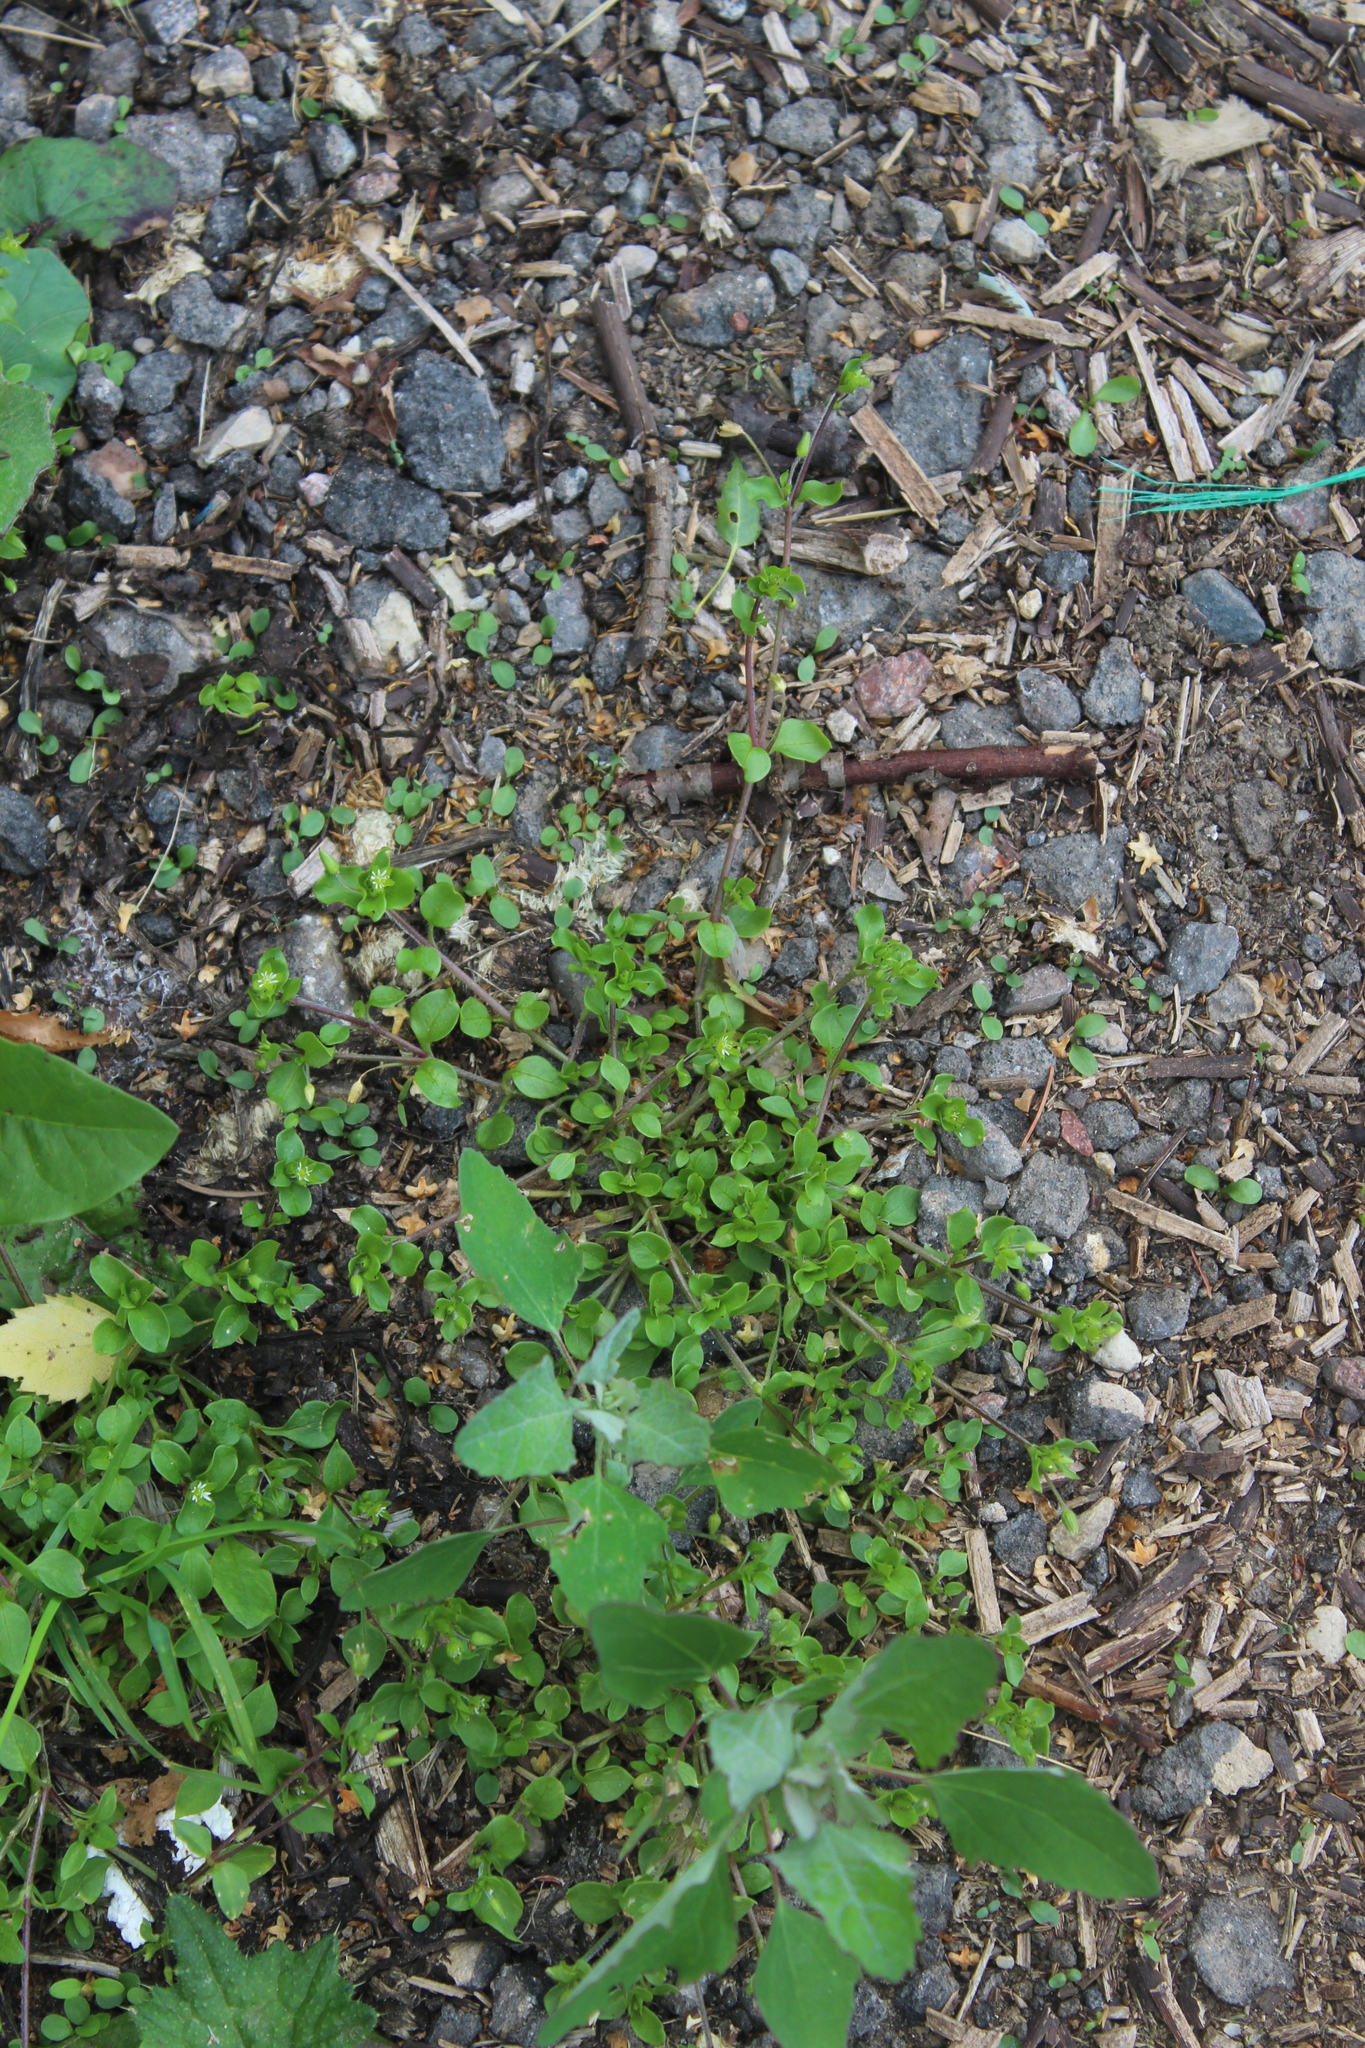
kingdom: Plantae
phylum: Tracheophyta
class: Magnoliopsida
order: Caryophyllales
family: Caryophyllaceae
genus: Stellaria
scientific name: Stellaria media
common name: Common chickweed
